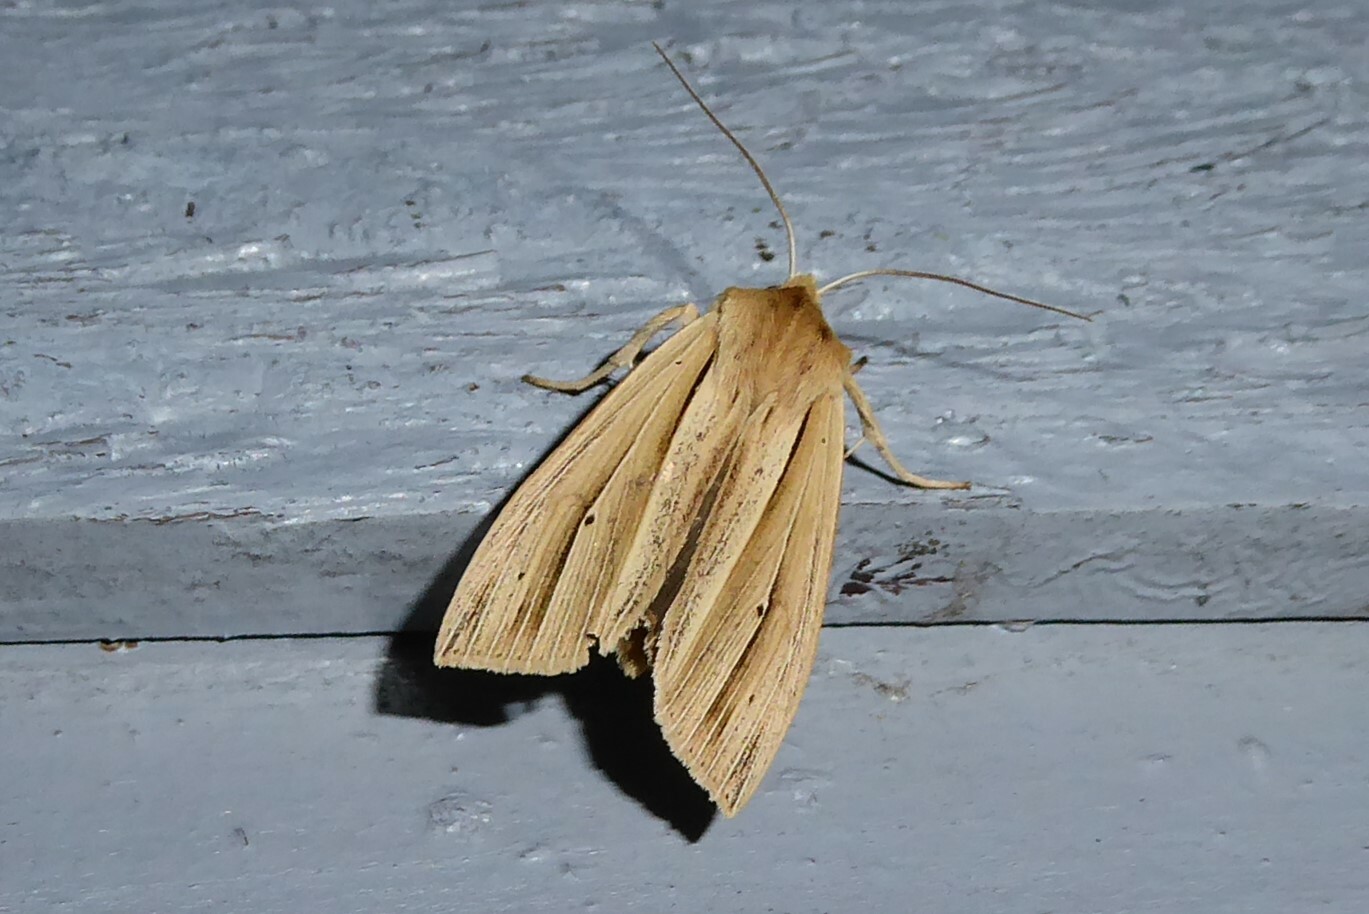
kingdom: Animalia
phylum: Arthropoda
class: Insecta
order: Lepidoptera
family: Noctuidae
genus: Ichneutica
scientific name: Ichneutica sulcana
